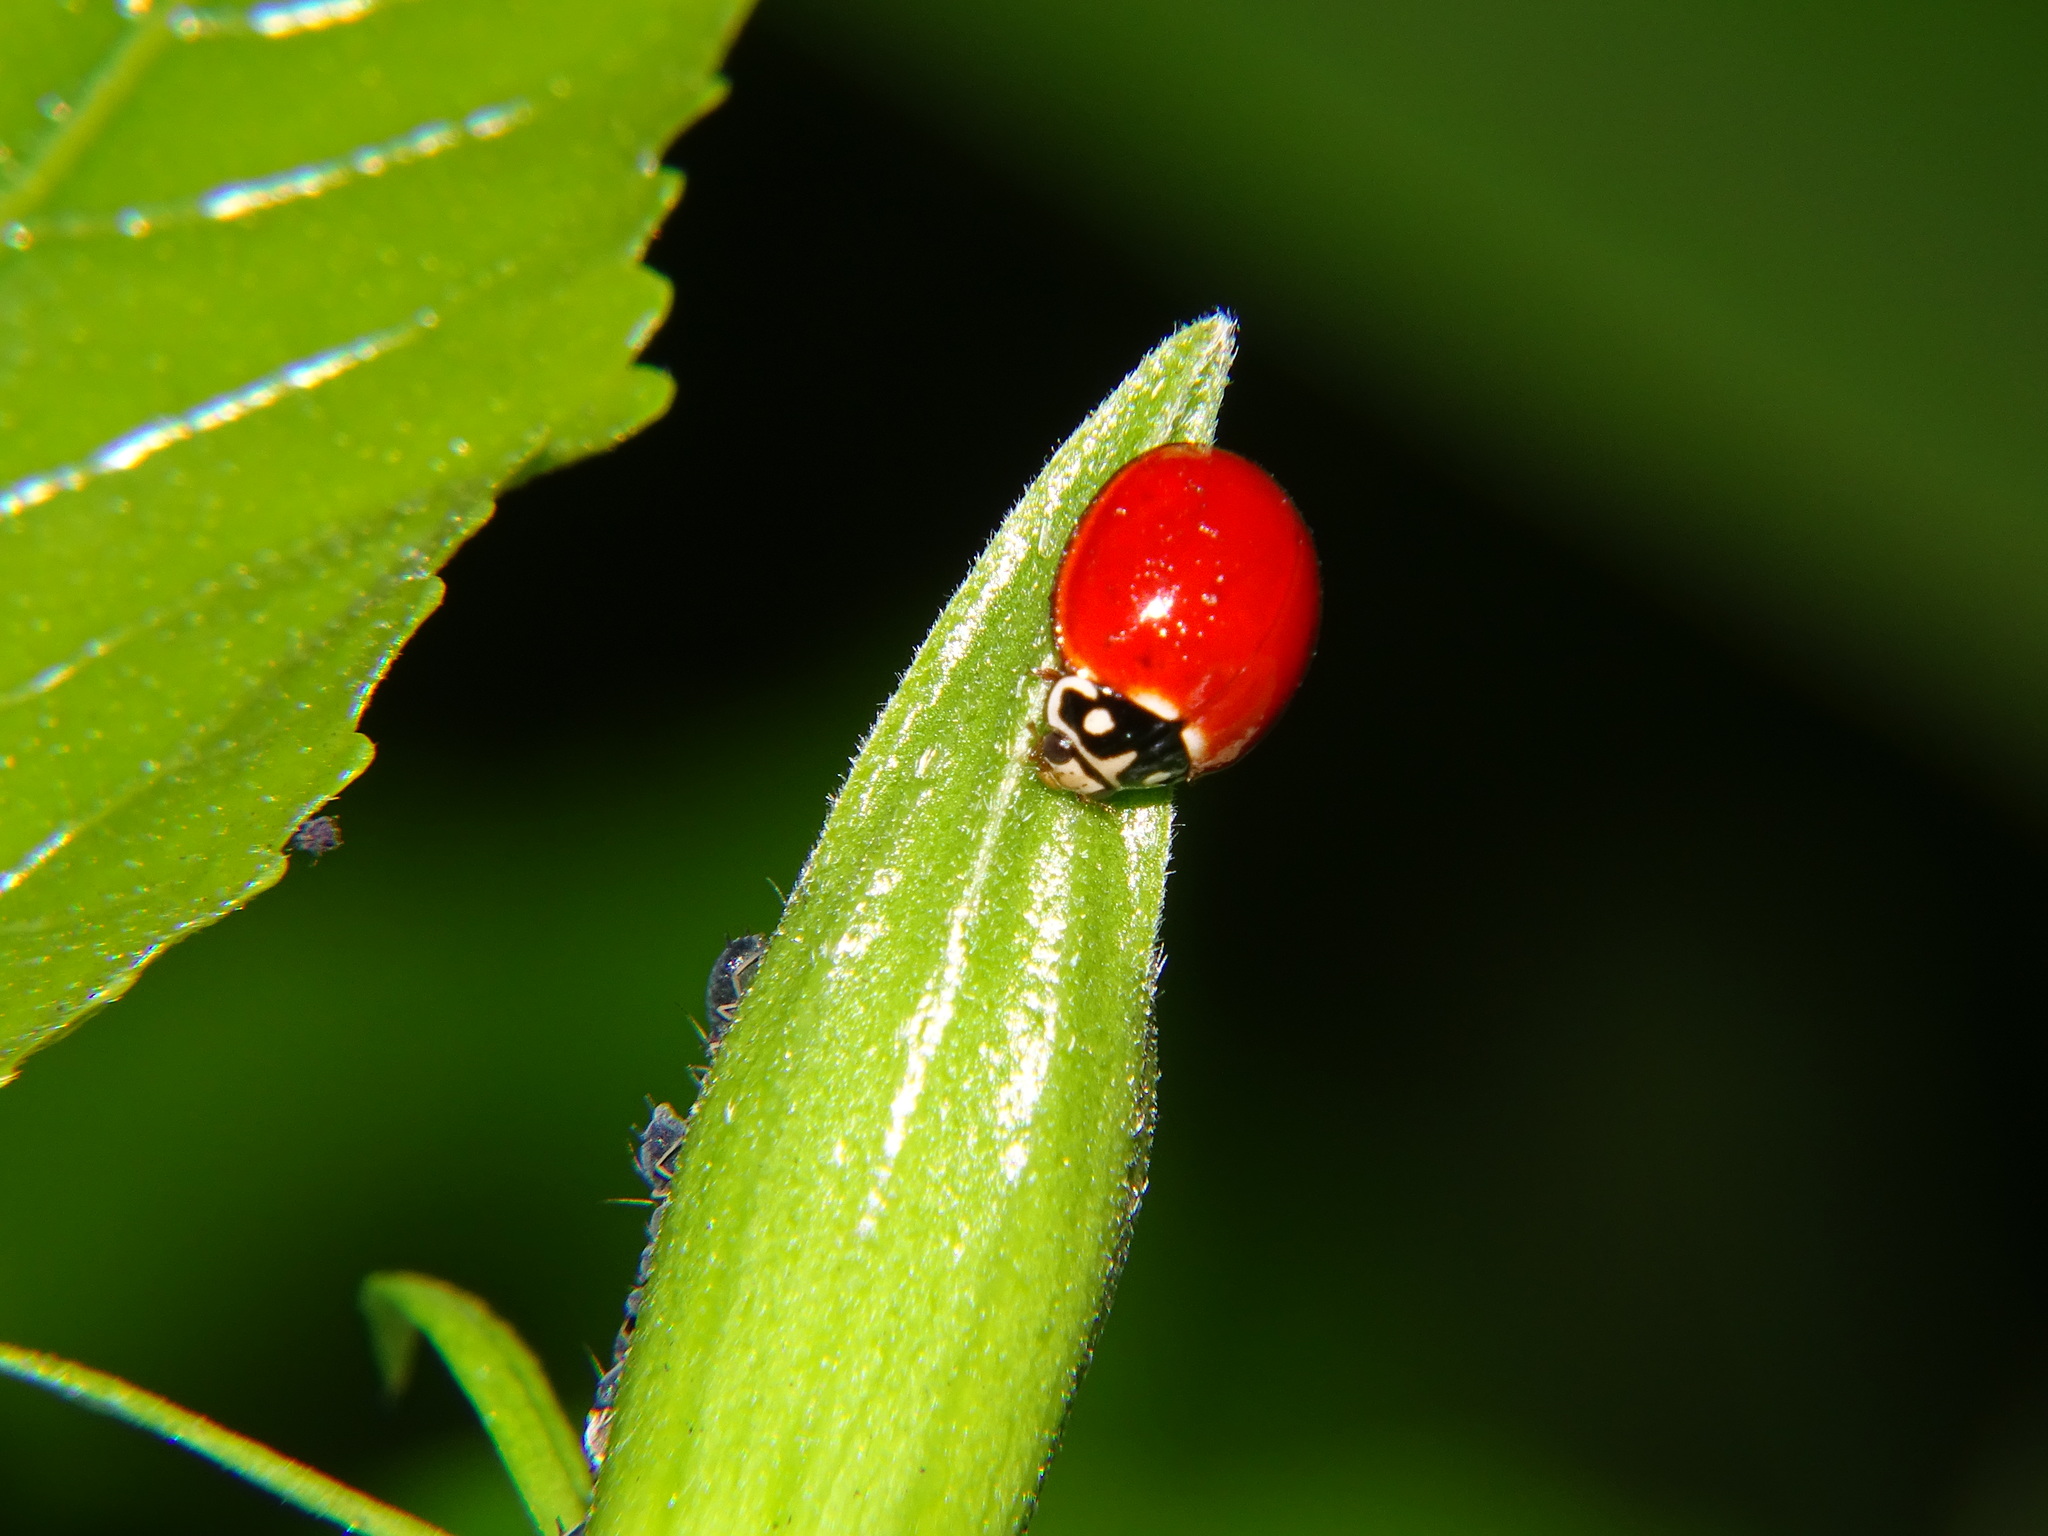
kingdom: Animalia
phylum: Arthropoda
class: Insecta
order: Coleoptera
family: Coccinellidae
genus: Cycloneda
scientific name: Cycloneda sanguinea
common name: Ladybird beetle
